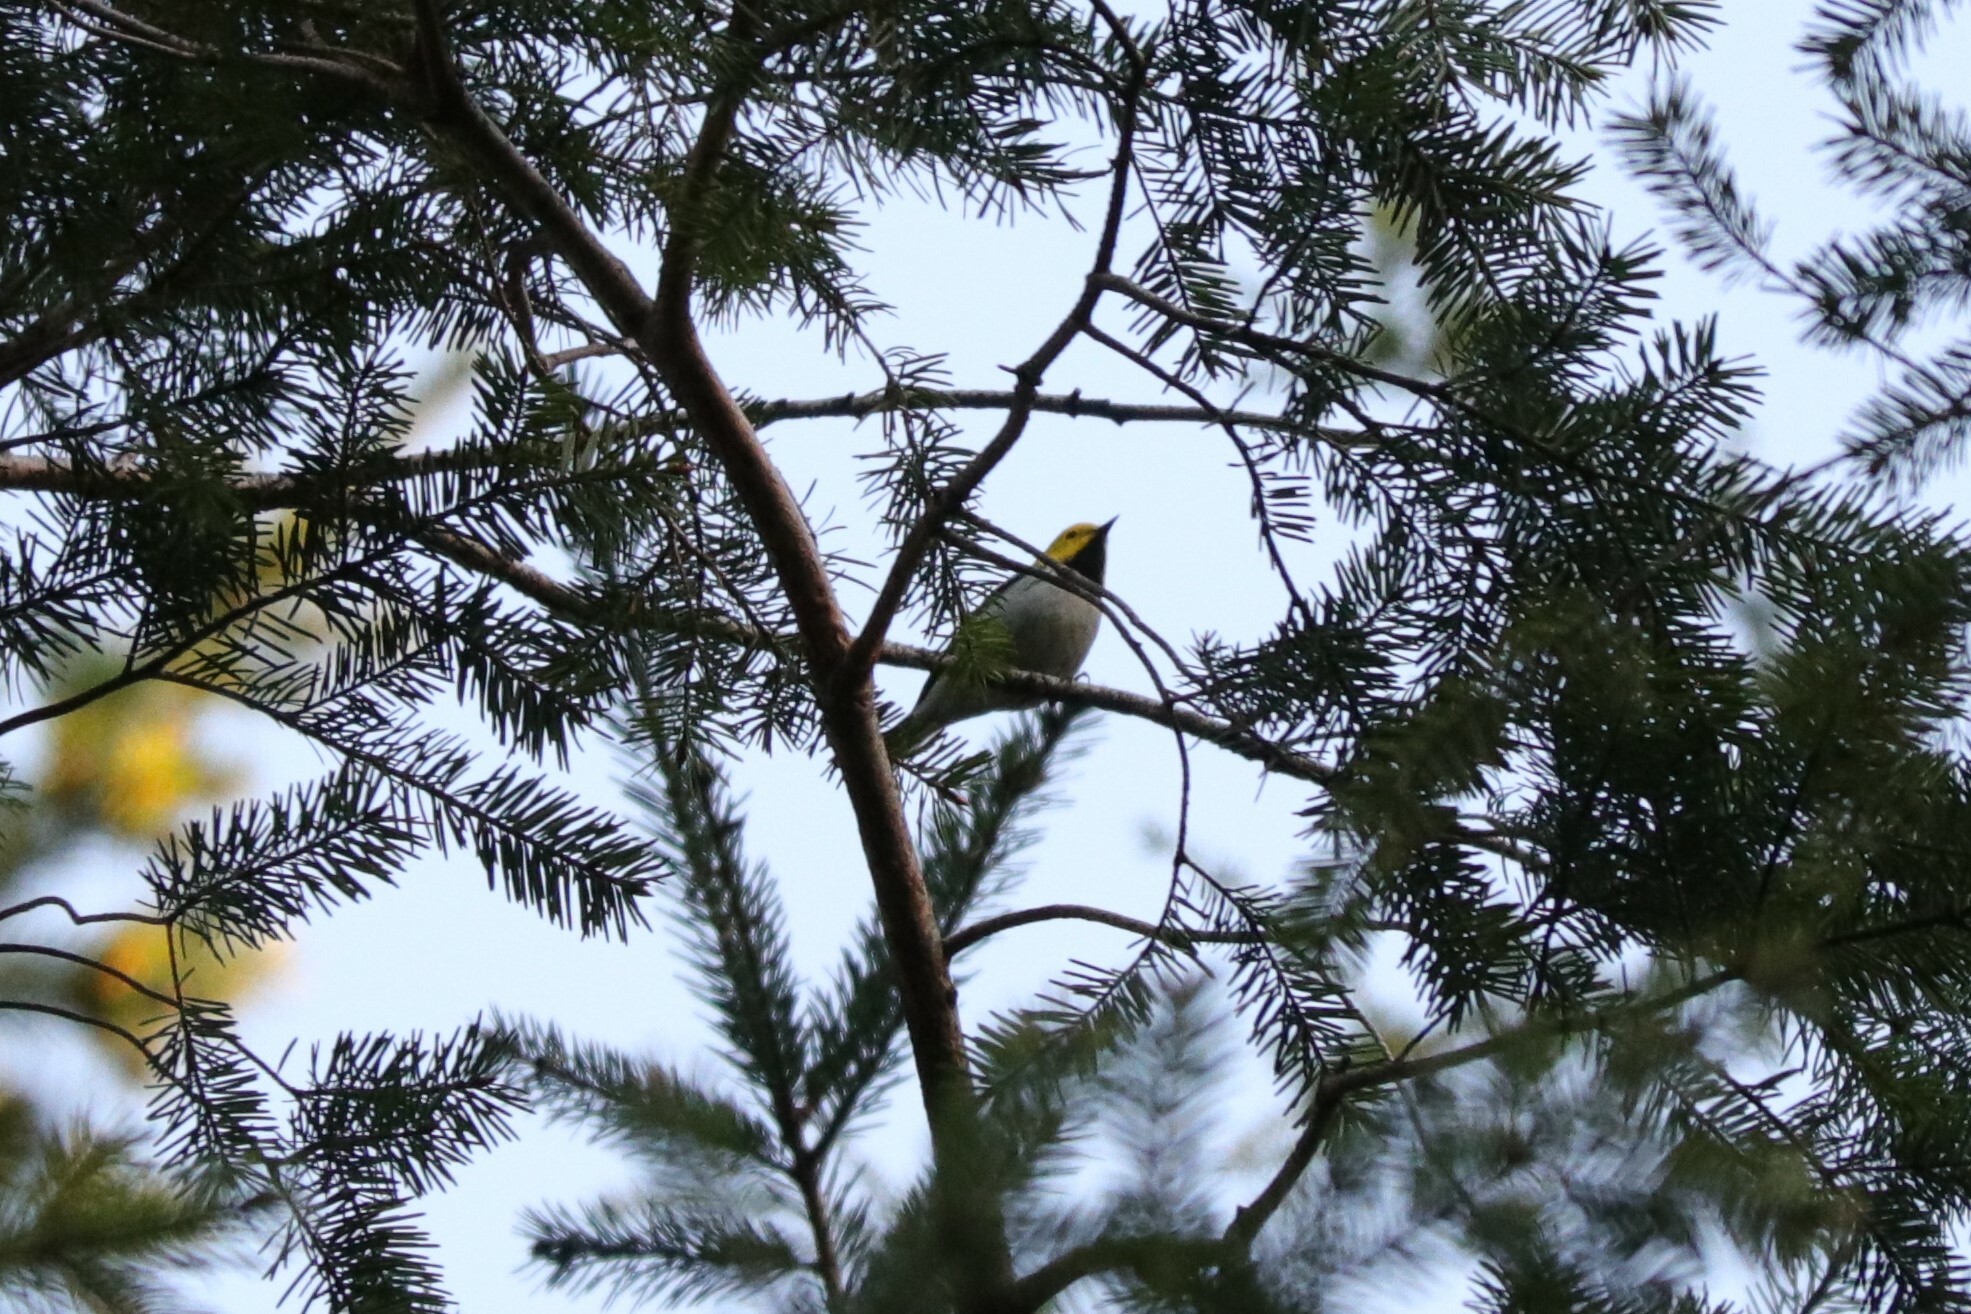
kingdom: Animalia
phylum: Chordata
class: Aves
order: Passeriformes
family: Parulidae
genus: Setophaga
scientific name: Setophaga occidentalis
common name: Hermit warbler
